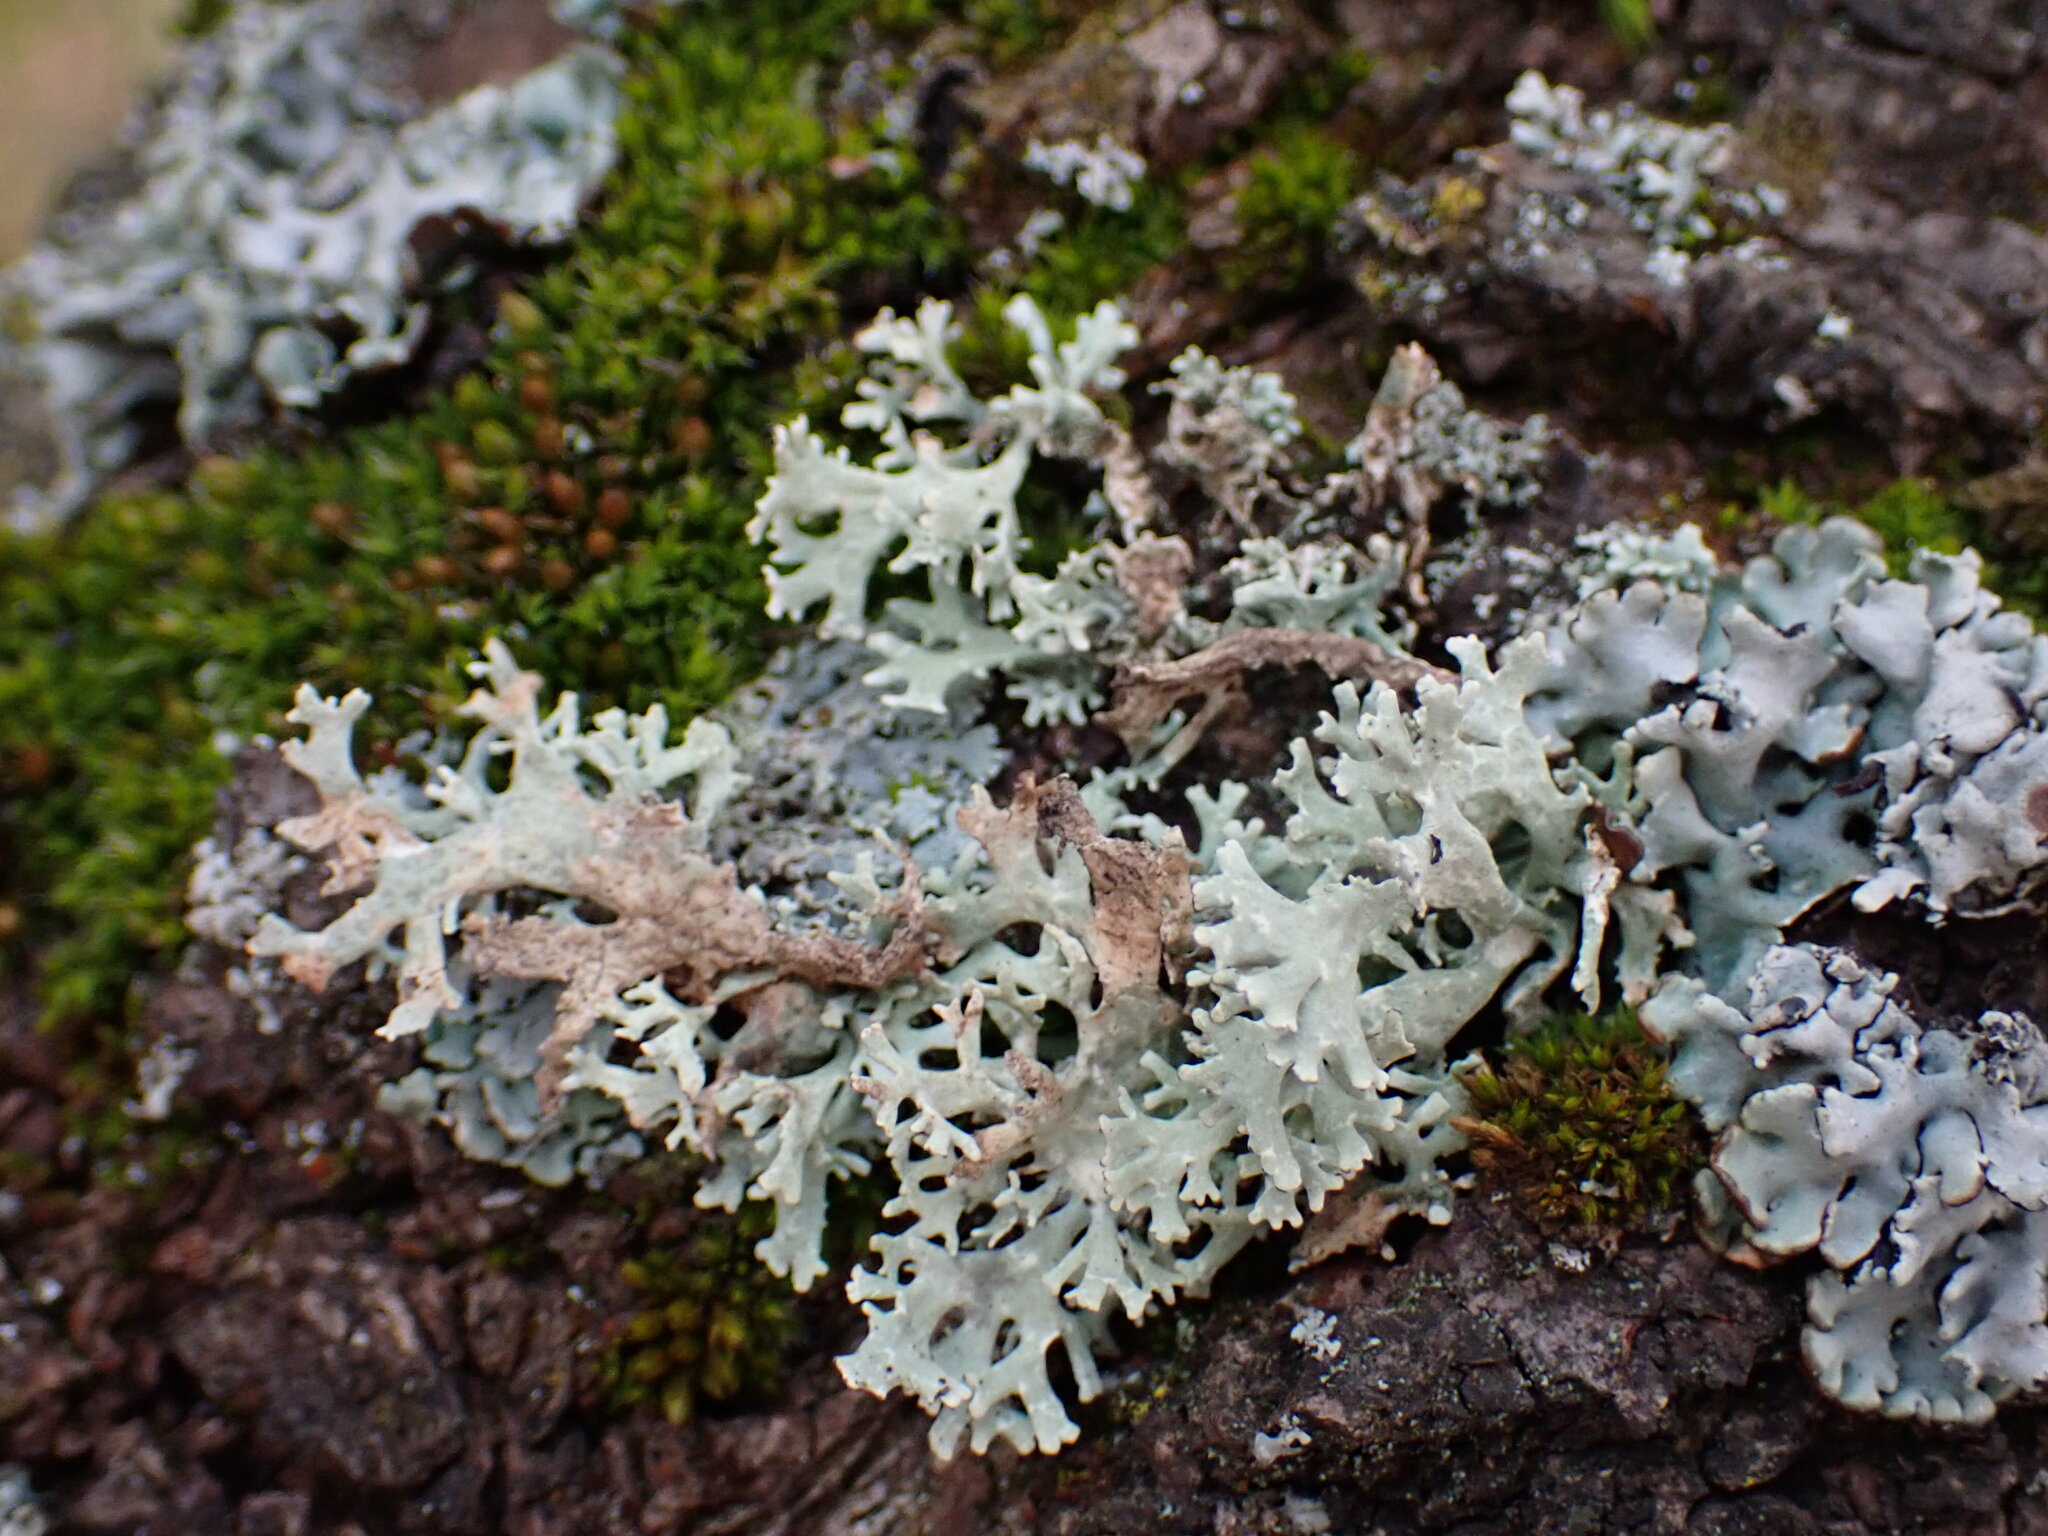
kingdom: Fungi
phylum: Ascomycota
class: Lecanoromycetes
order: Lecanorales
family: Parmeliaceae
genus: Evernia
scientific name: Evernia prunastri
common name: Oak moss
